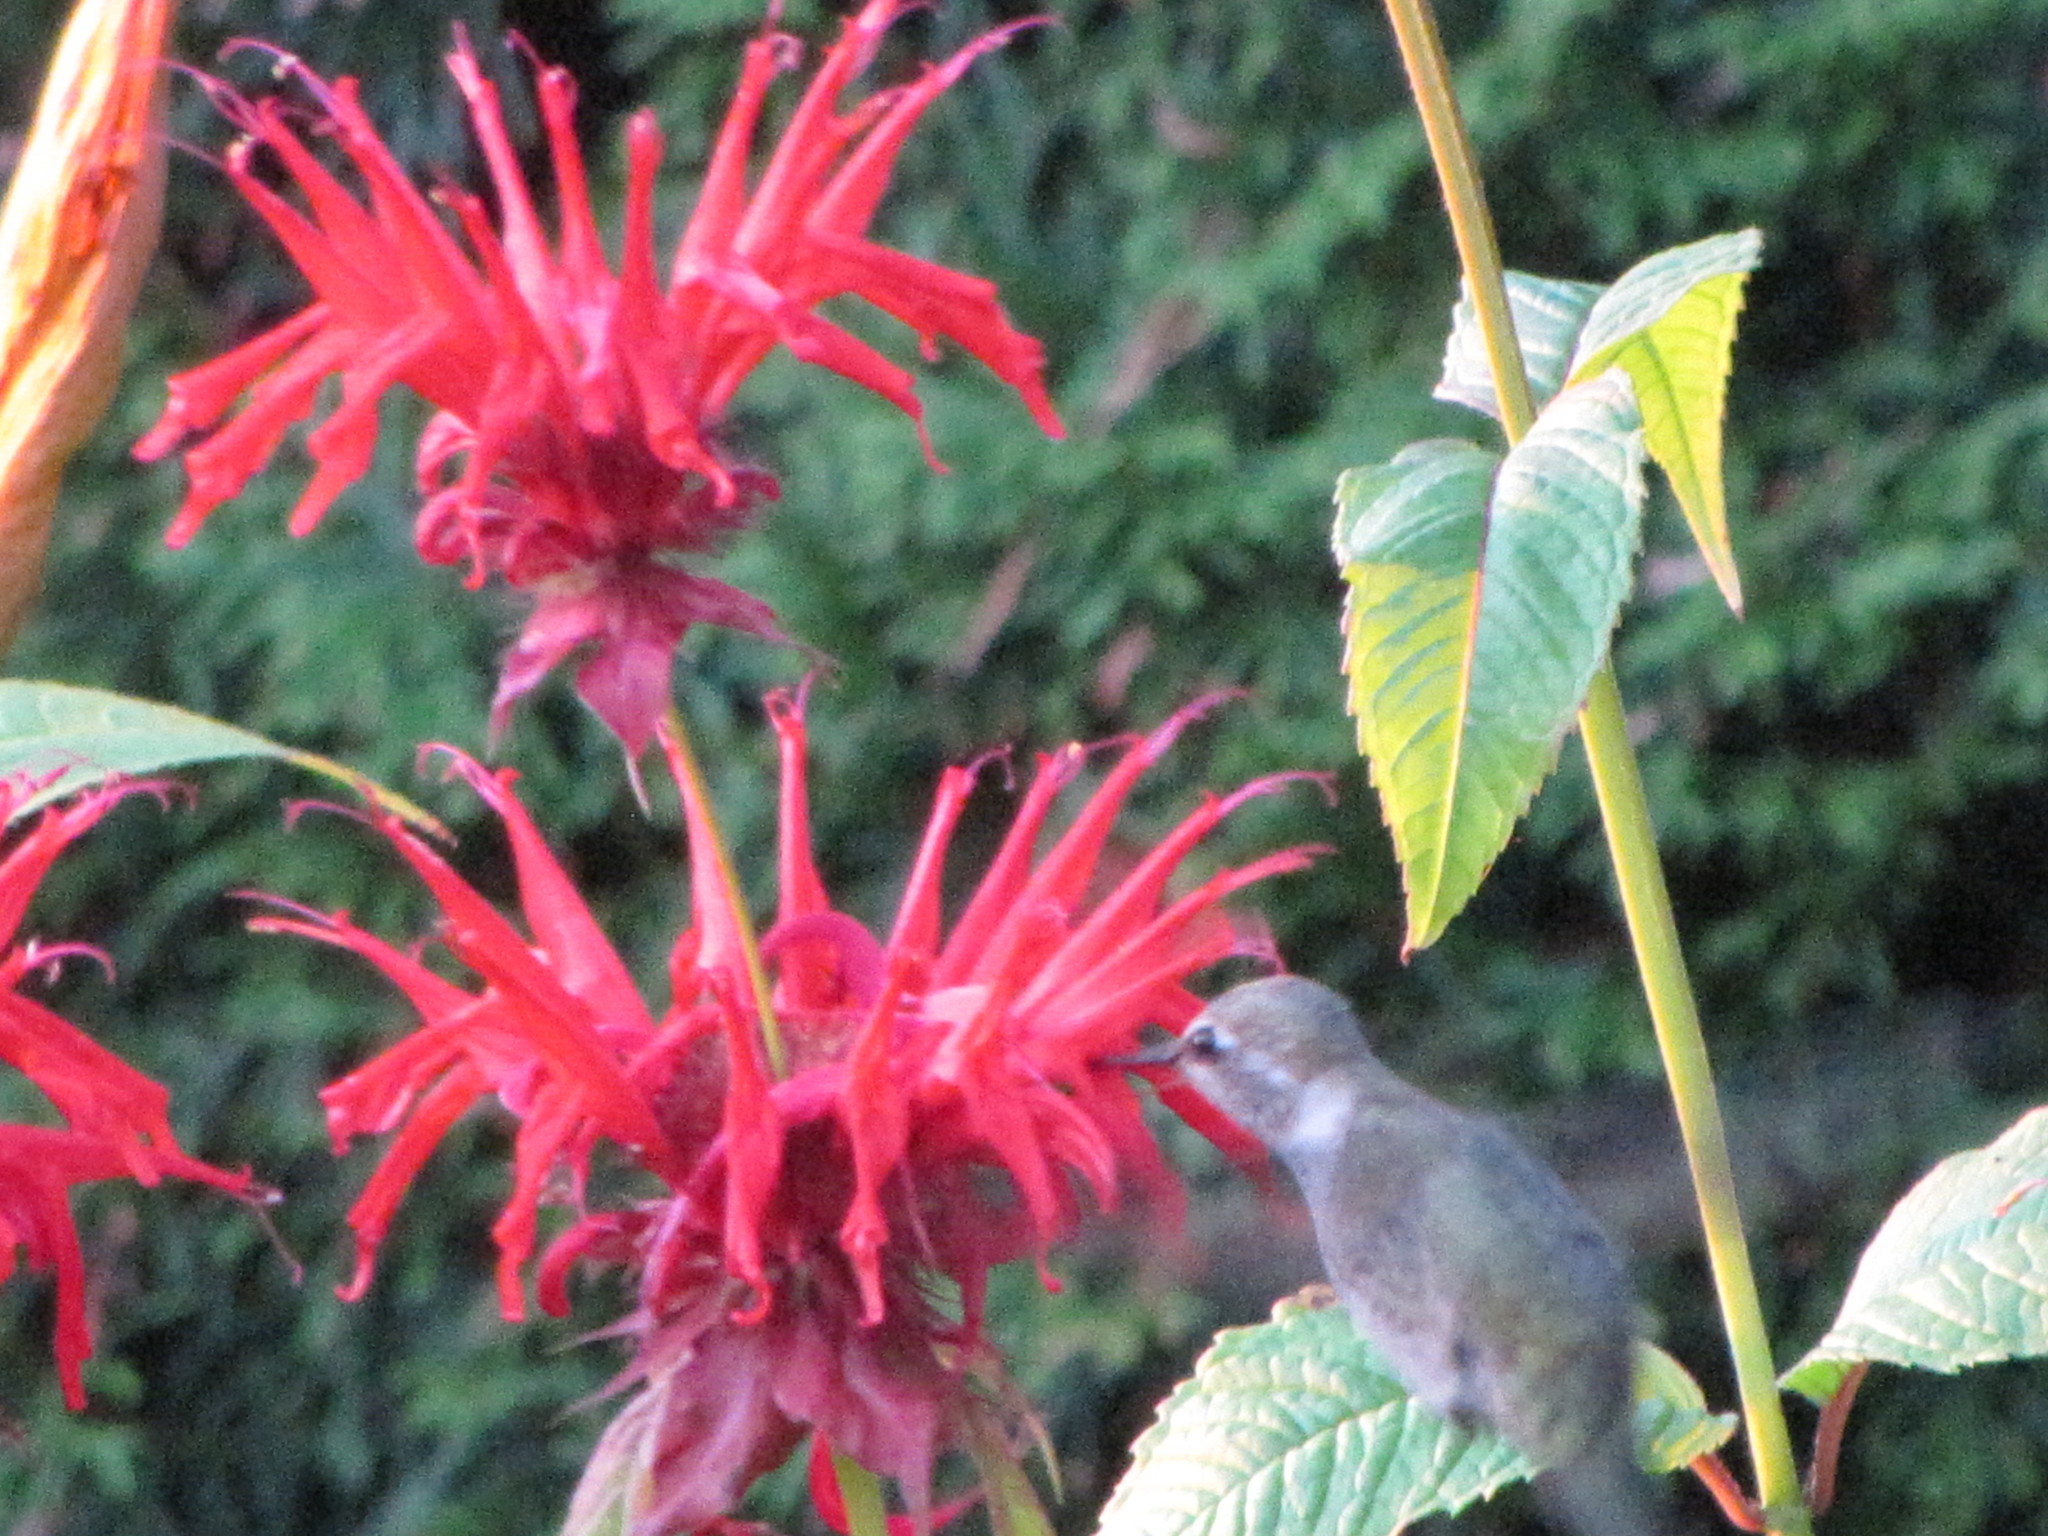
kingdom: Animalia
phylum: Chordata
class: Aves
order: Apodiformes
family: Trochilidae
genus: Calypte
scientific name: Calypte anna
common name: Anna's hummingbird
